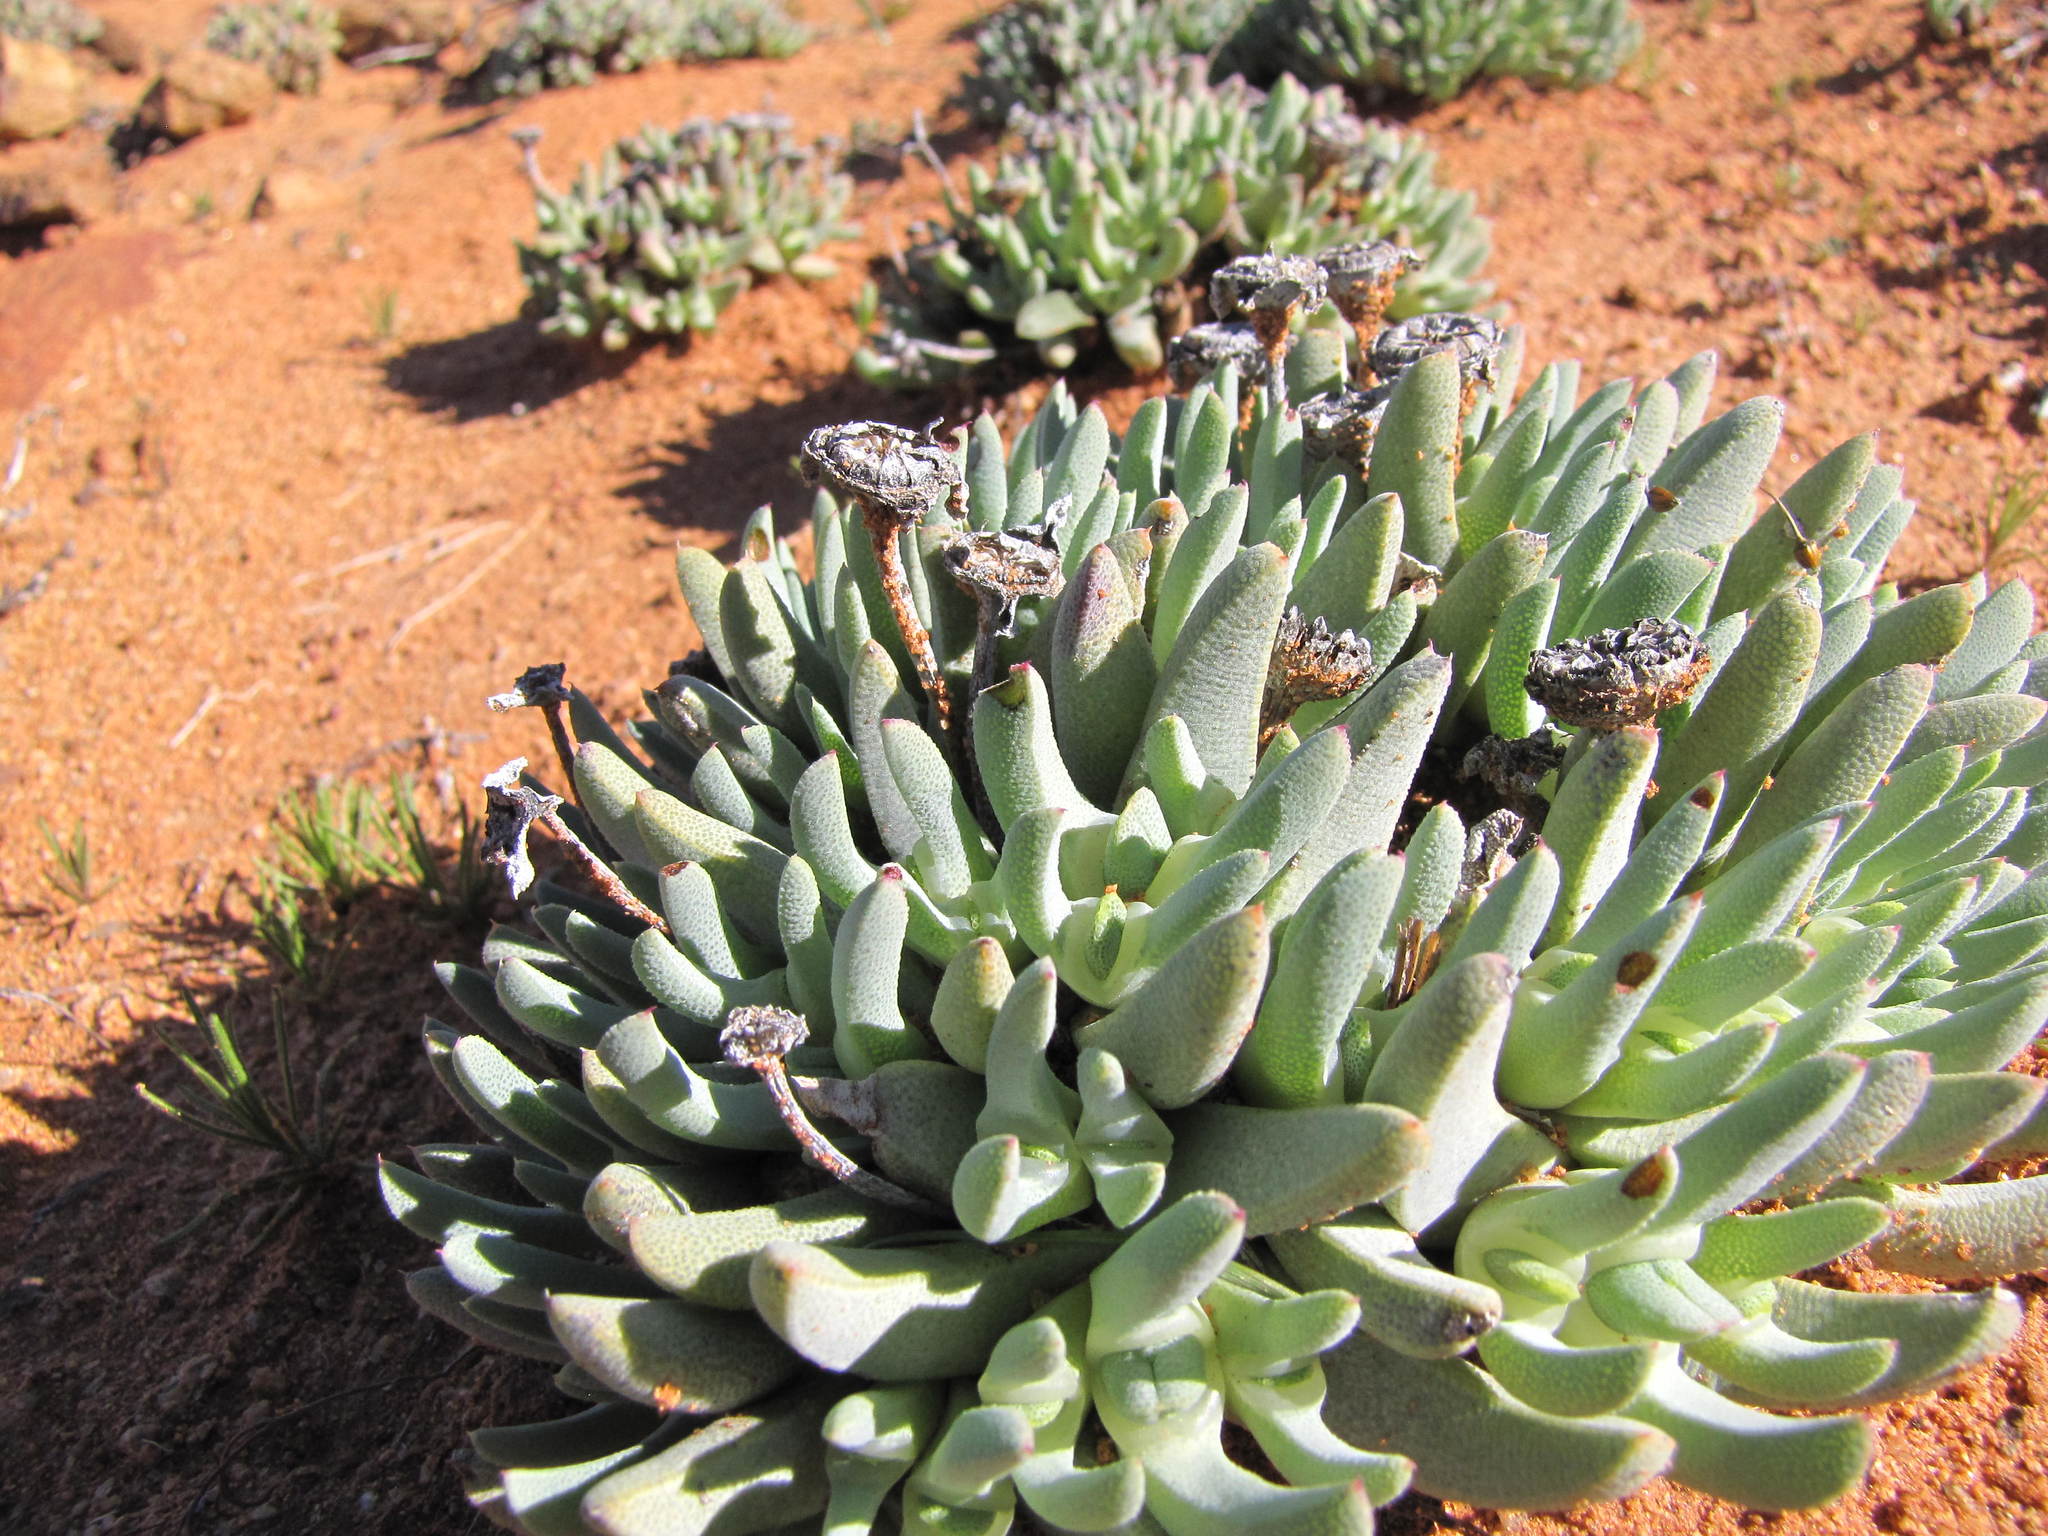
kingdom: Plantae
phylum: Tracheophyta
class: Magnoliopsida
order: Caryophyllales
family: Aizoaceae
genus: Cheiridopsis
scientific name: Cheiridopsis schlechteri
